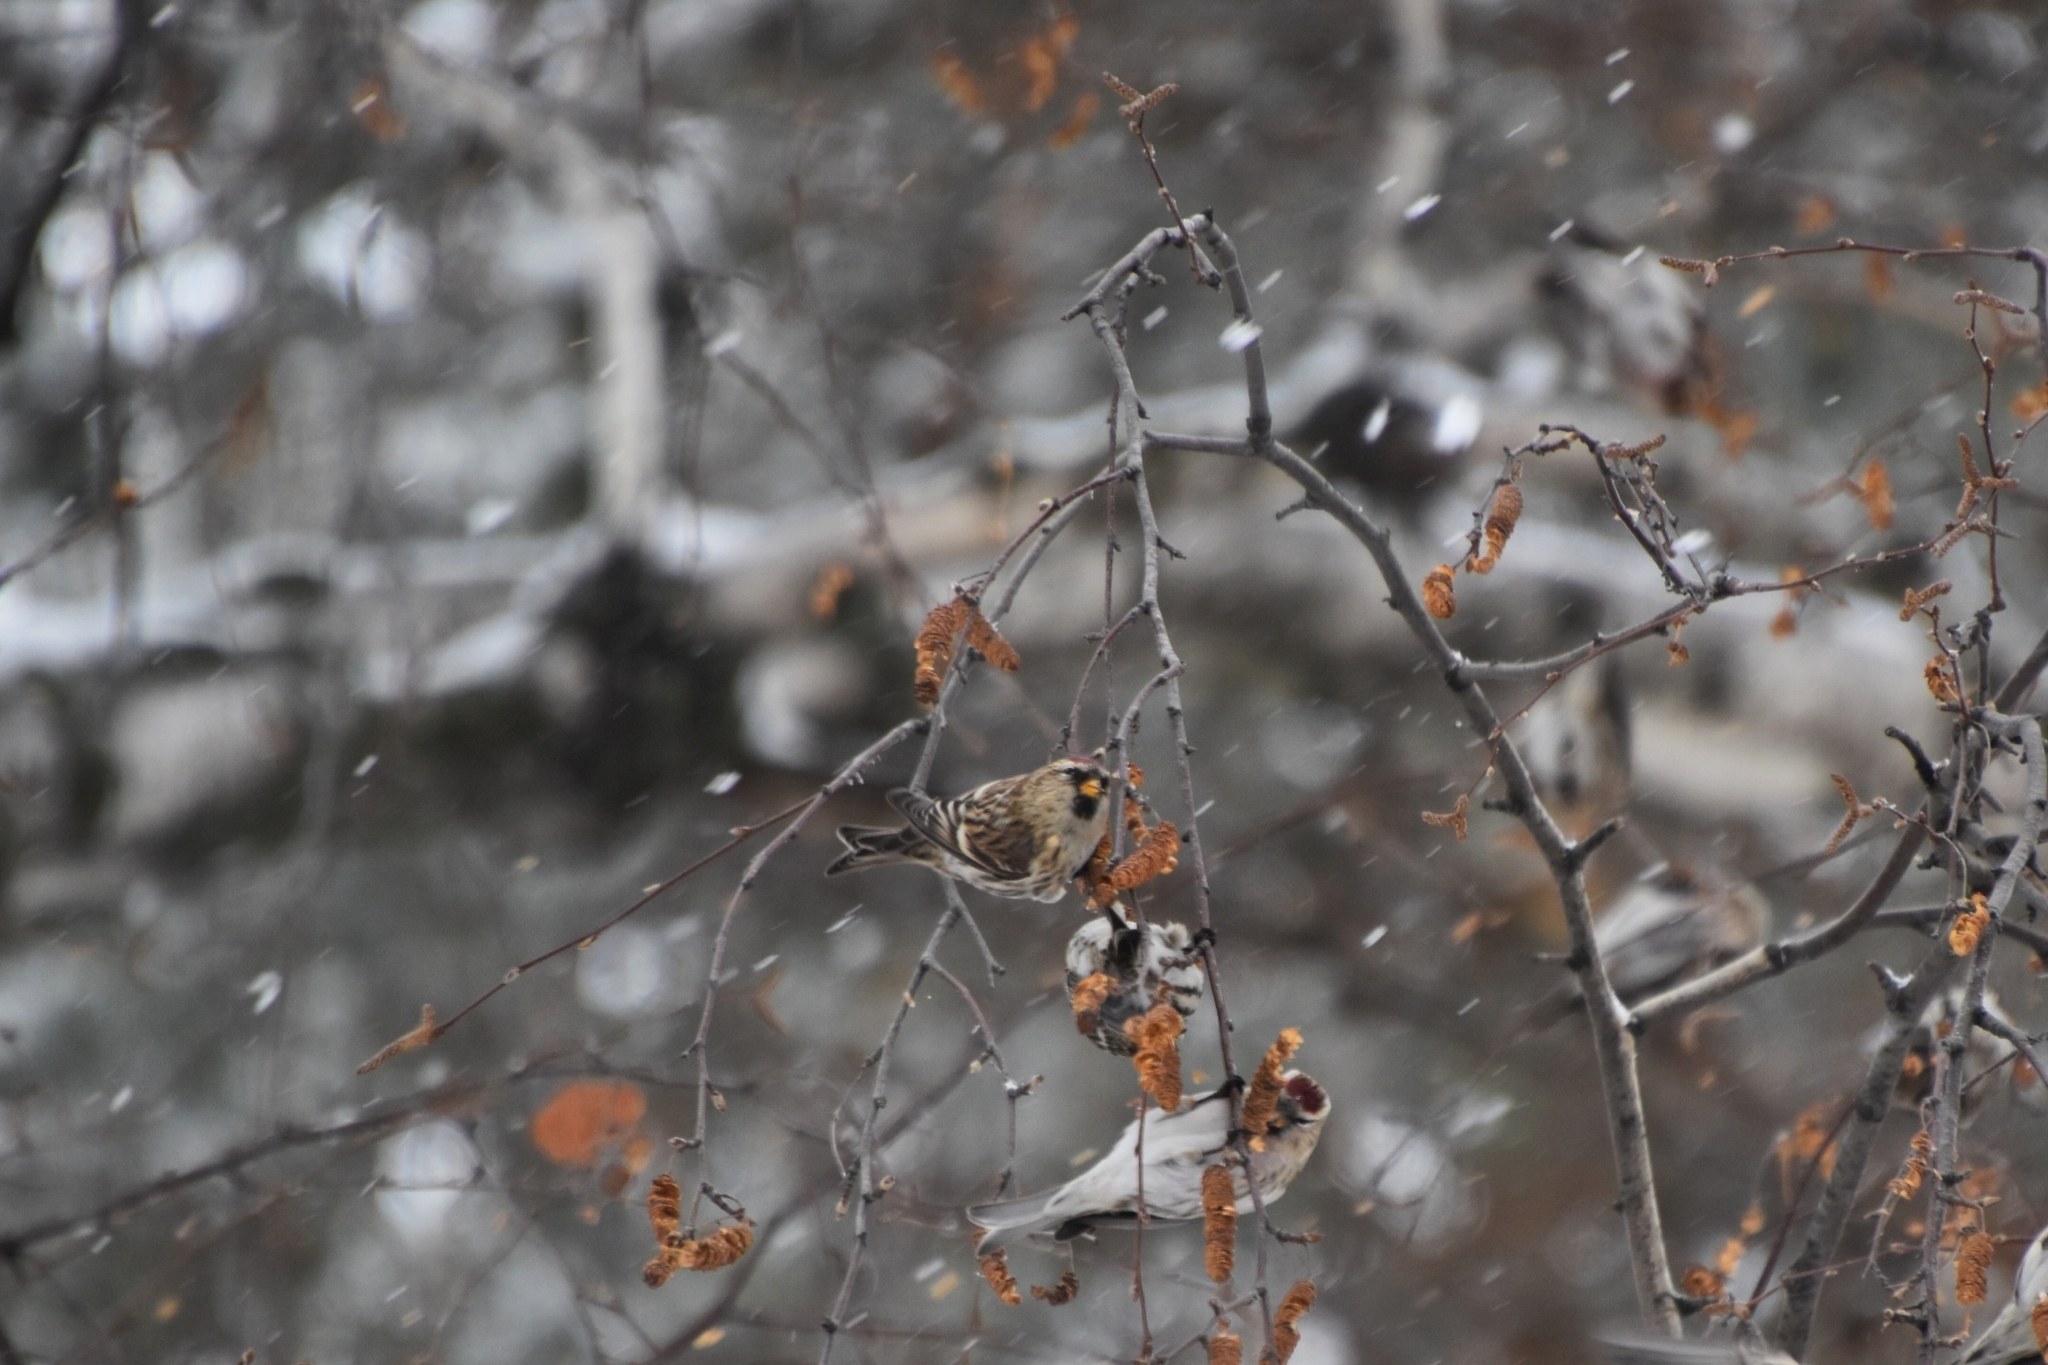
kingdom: Animalia
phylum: Chordata
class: Aves
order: Passeriformes
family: Fringillidae
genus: Acanthis
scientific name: Acanthis flammea
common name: Common redpoll
